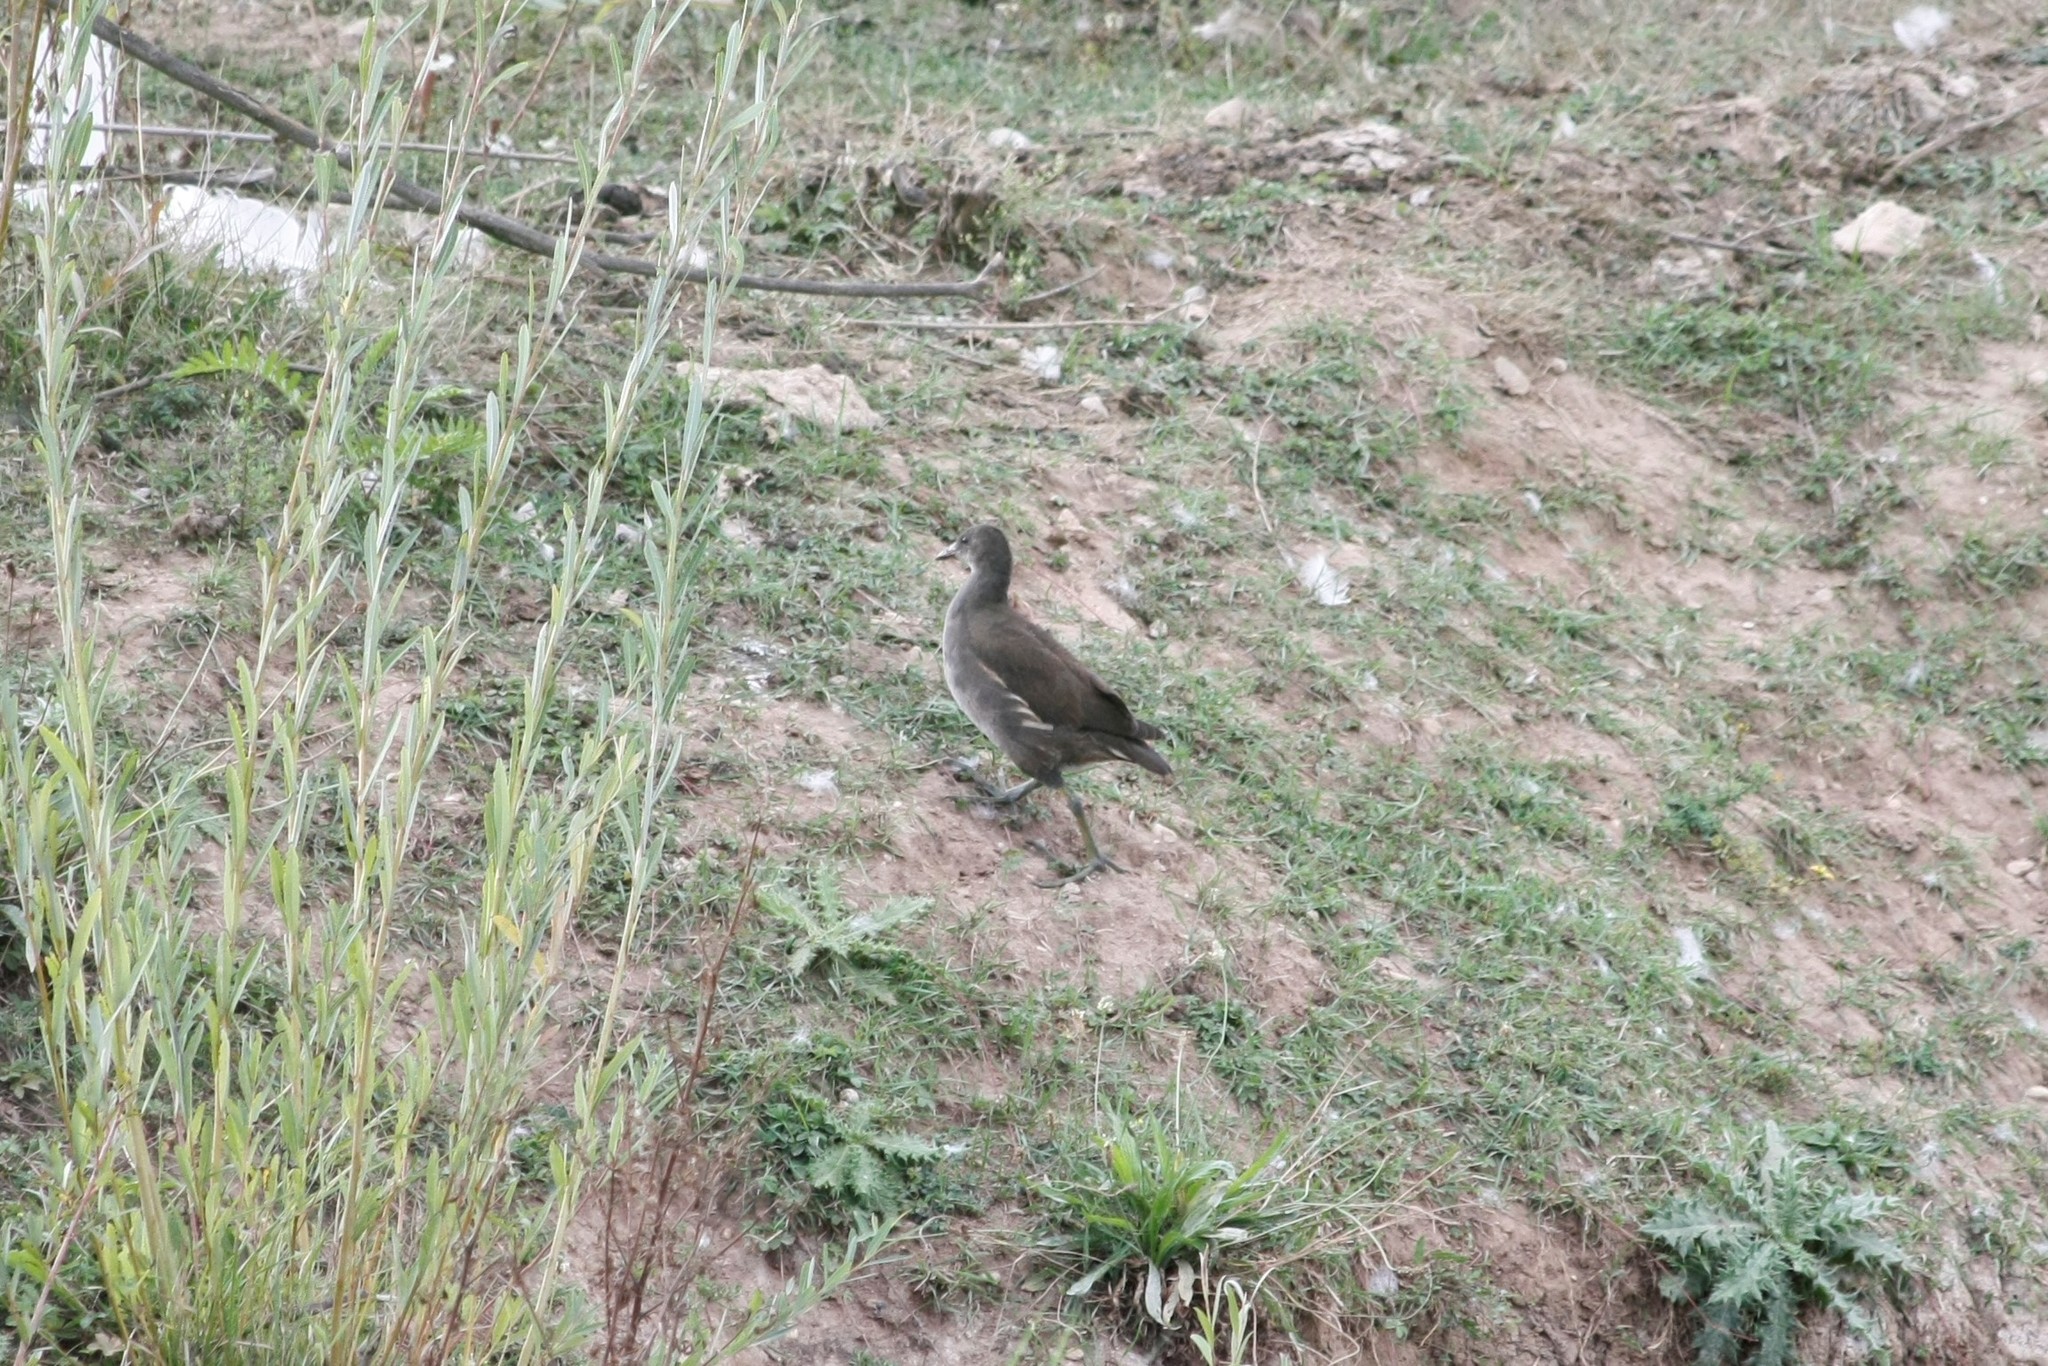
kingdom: Animalia
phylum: Chordata
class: Aves
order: Gruiformes
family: Rallidae
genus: Gallinula
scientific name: Gallinula chloropus
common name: Common moorhen
